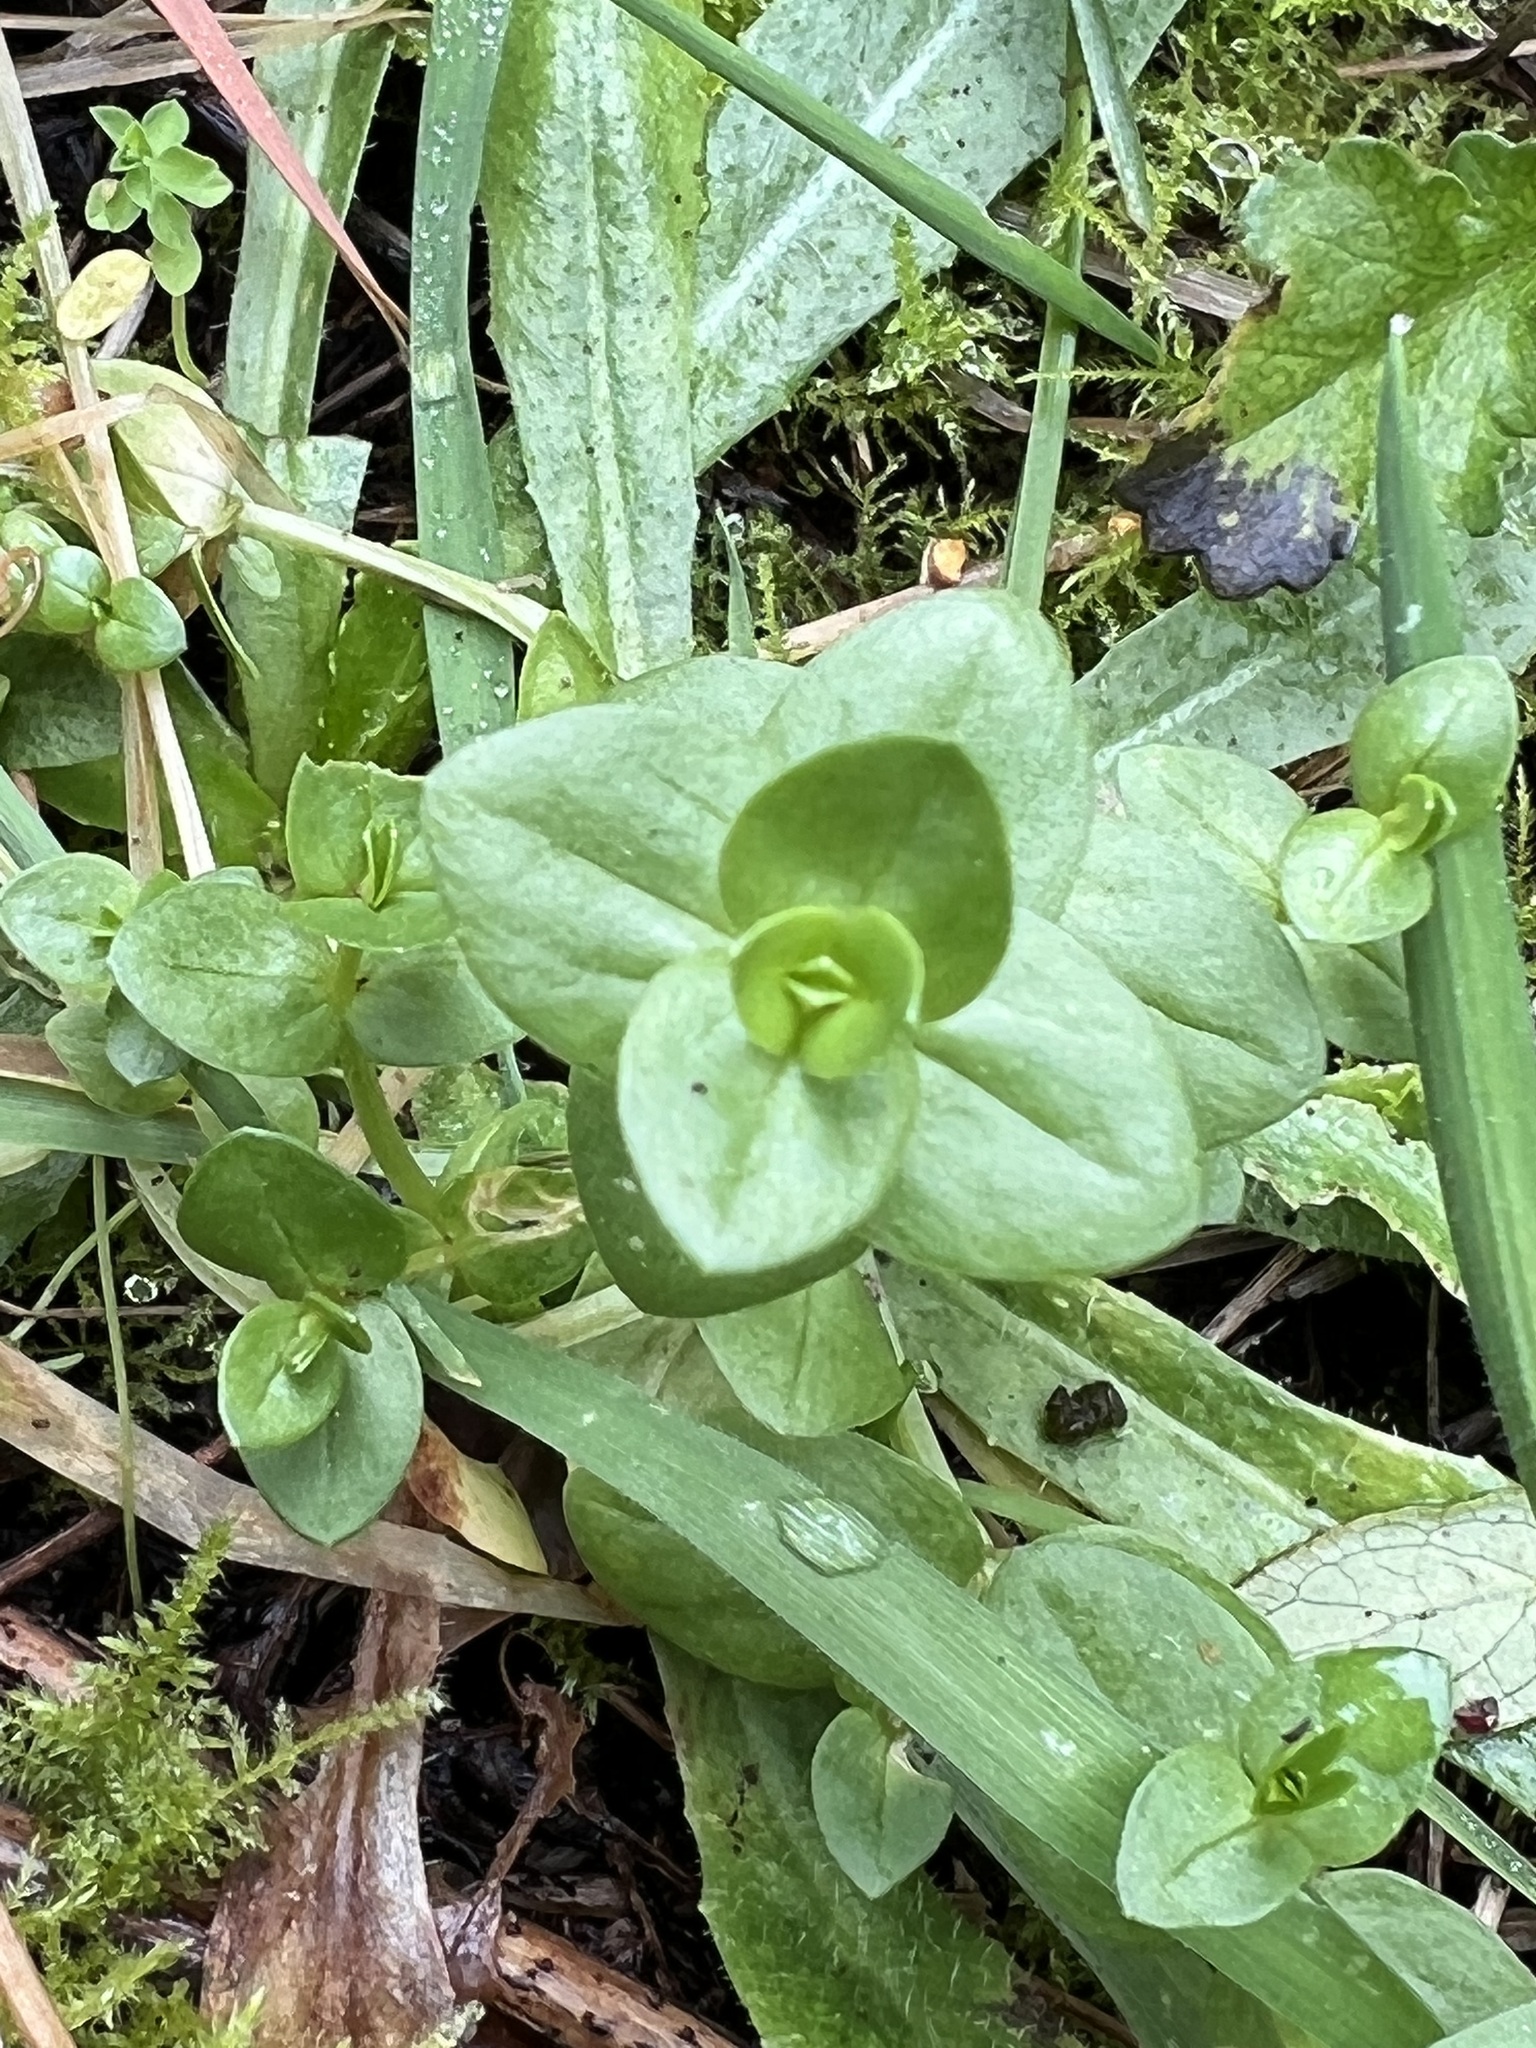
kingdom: Plantae
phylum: Tracheophyta
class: Magnoliopsida
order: Ericales
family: Primulaceae
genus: Lysimachia
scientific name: Lysimachia arvensis
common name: Scarlet pimpernel
